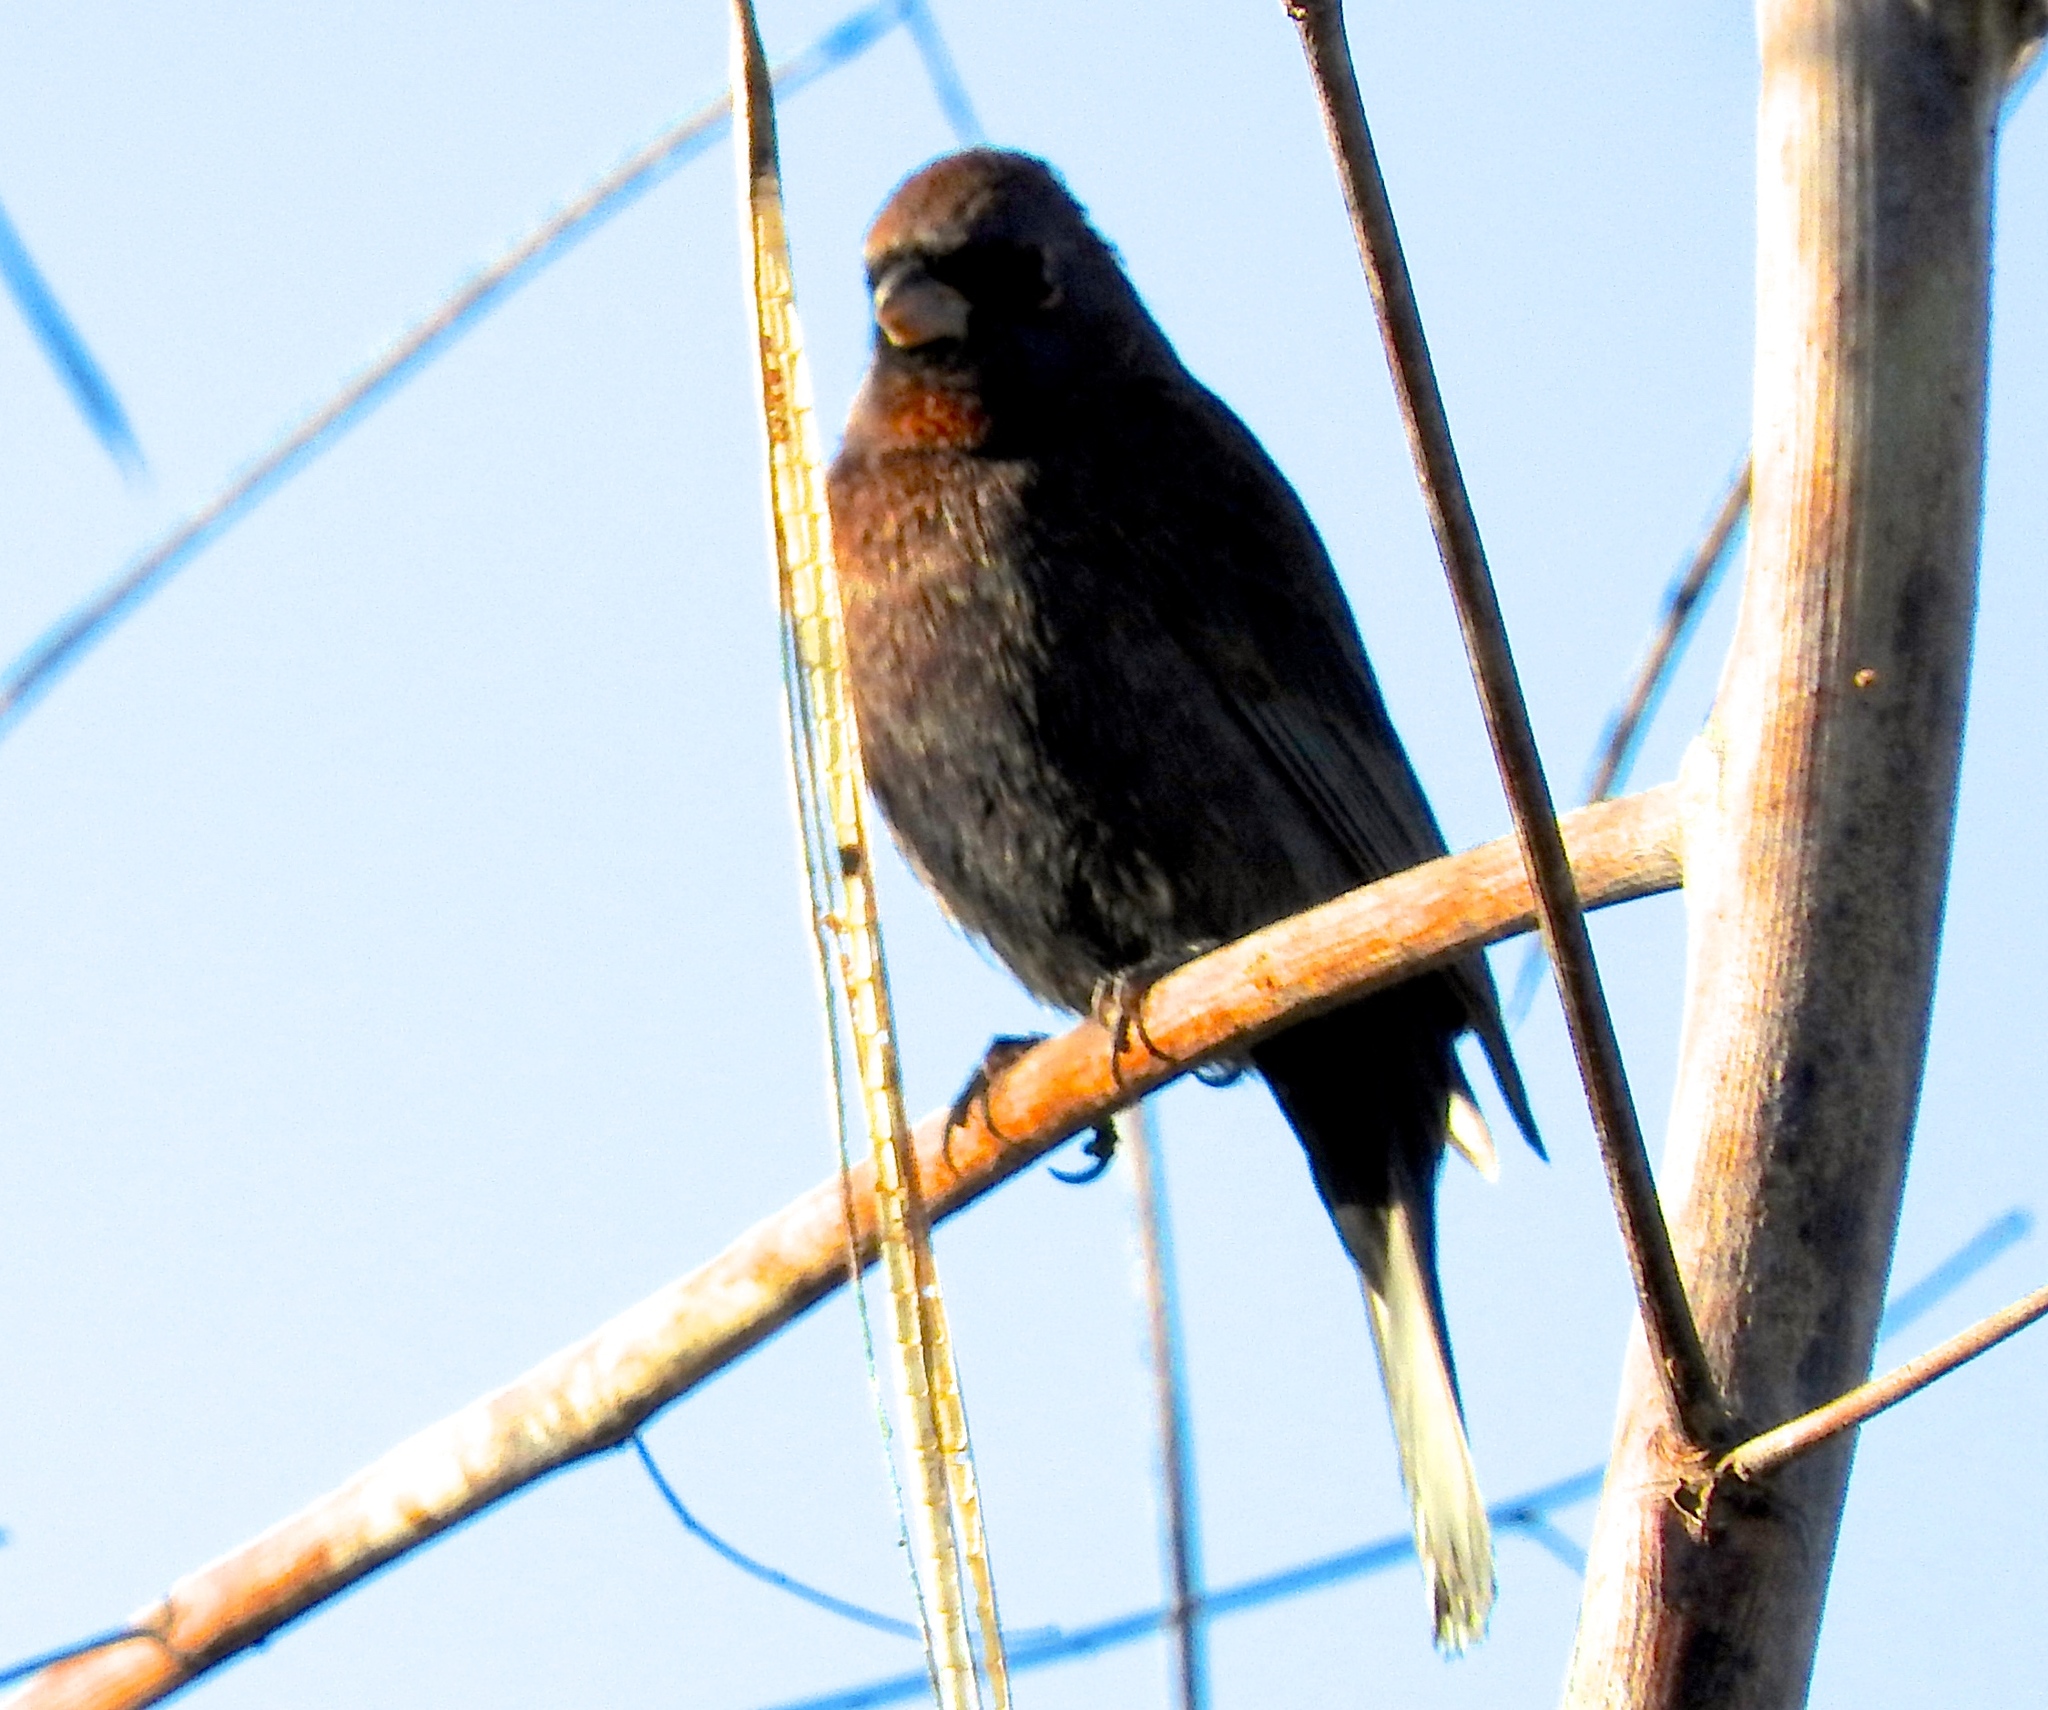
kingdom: Animalia
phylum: Chordata
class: Aves
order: Passeriformes
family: Cardinalidae
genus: Passerina
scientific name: Passerina versicolor
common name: Varied bunting
